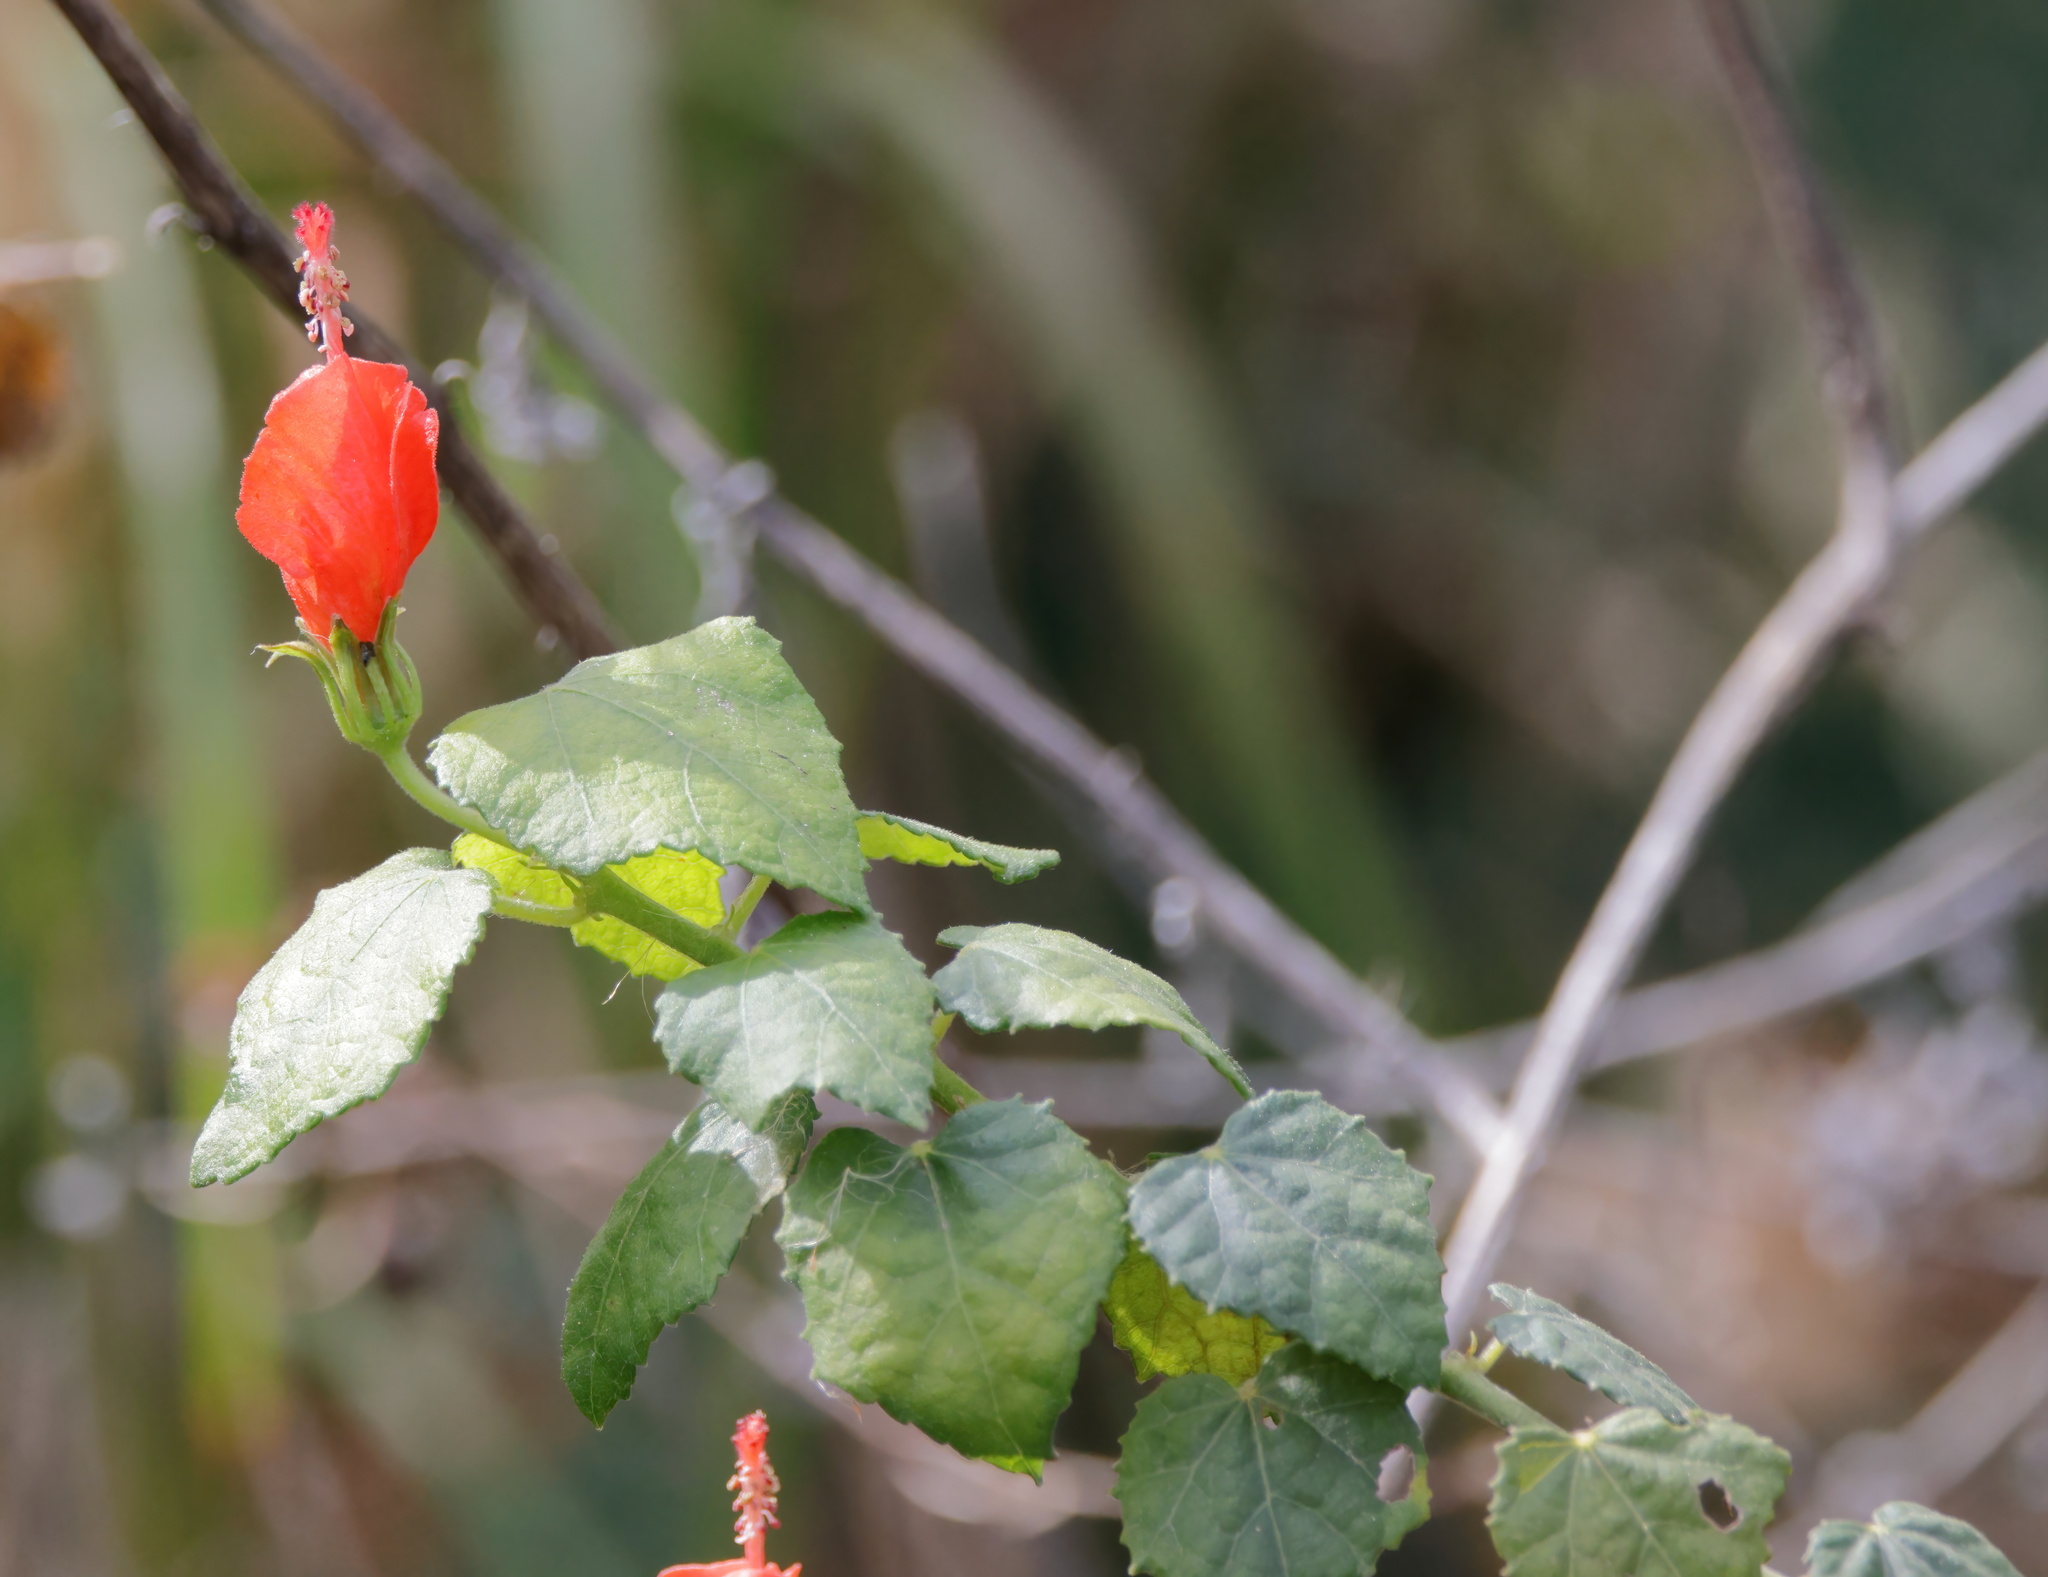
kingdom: Plantae
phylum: Tracheophyta
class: Magnoliopsida
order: Malvales
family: Malvaceae
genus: Malvaviscus
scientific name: Malvaviscus arboreus
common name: Wax mallow
